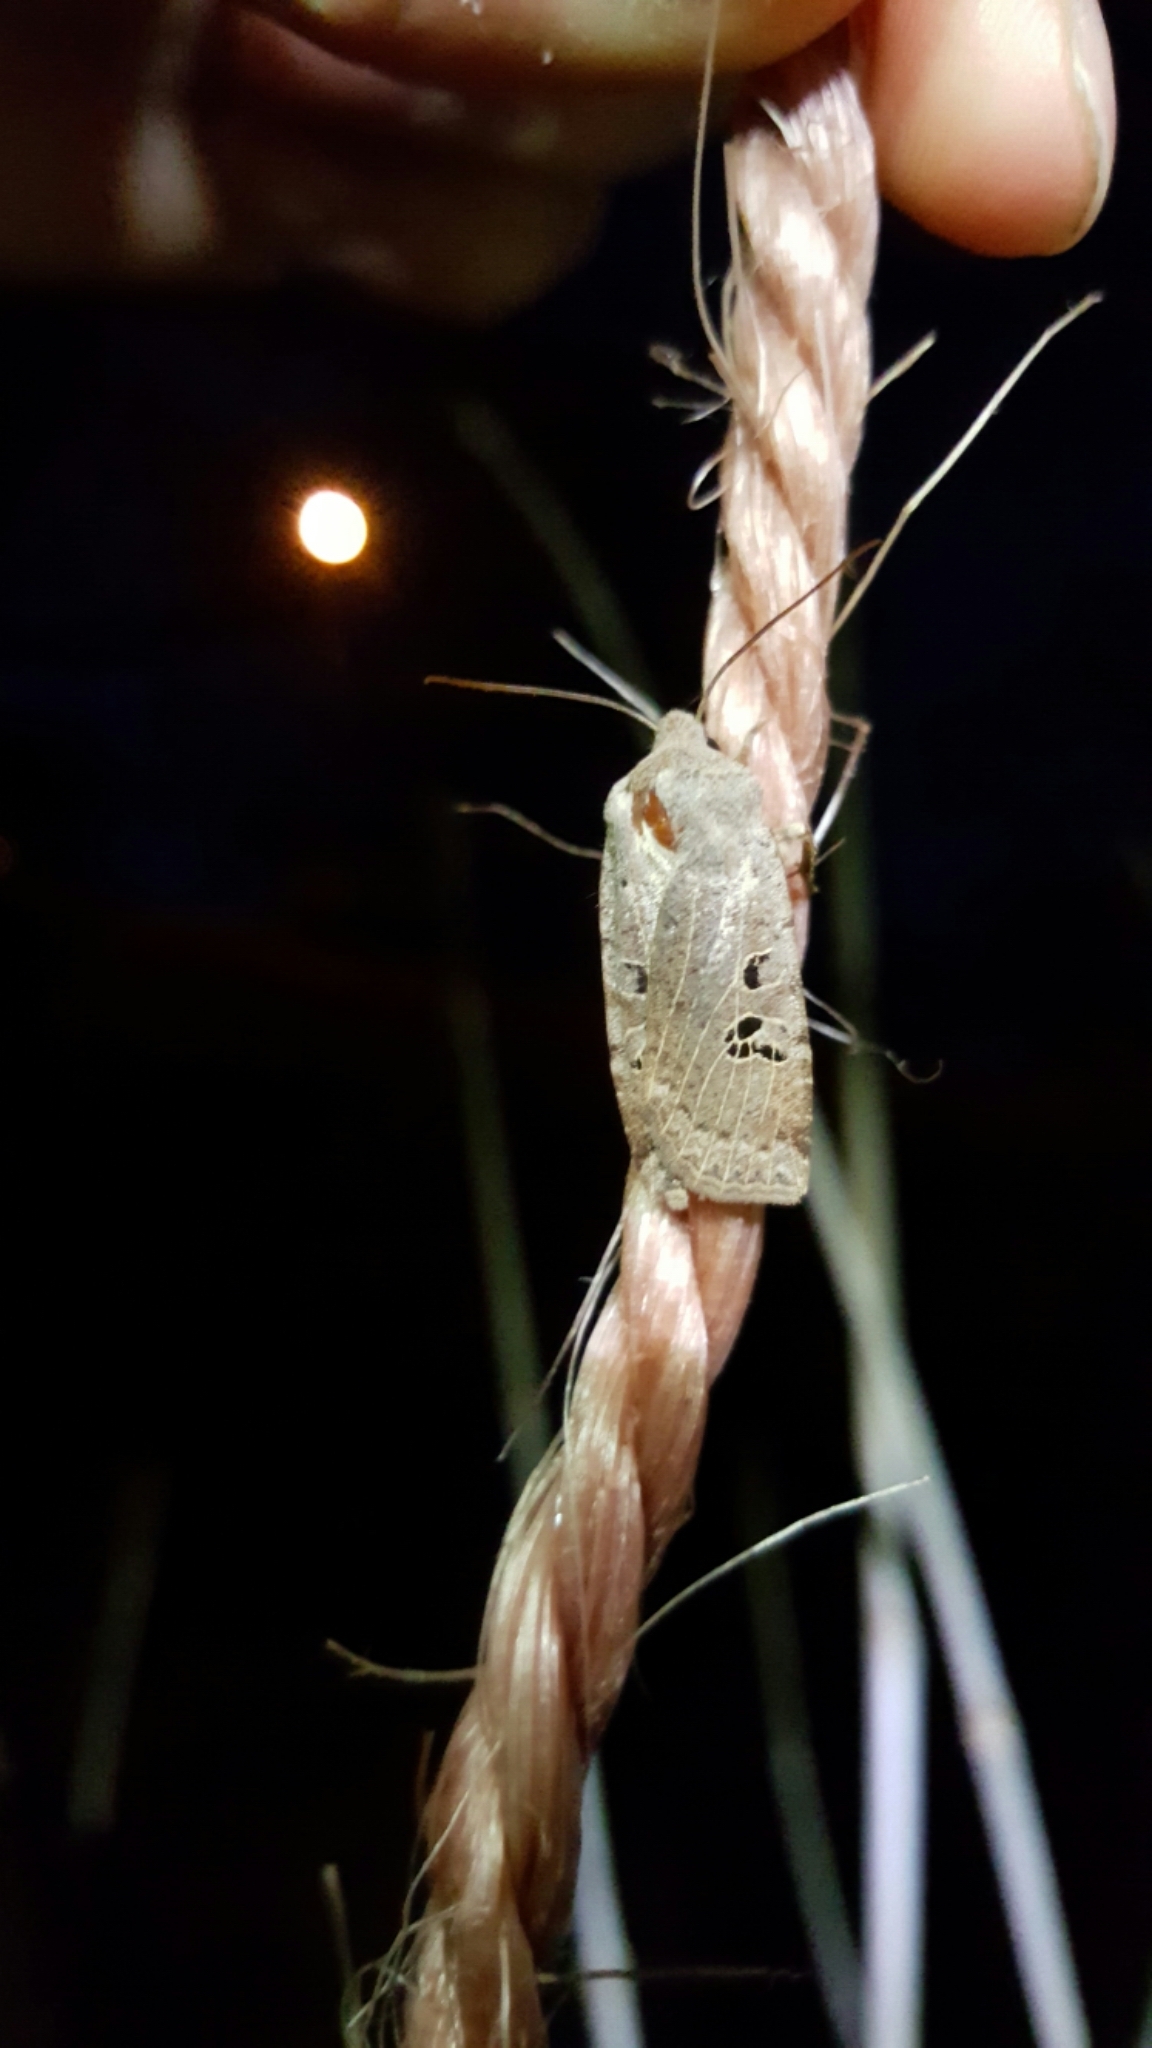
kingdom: Animalia
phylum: Arthropoda
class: Insecta
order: Lepidoptera
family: Noctuidae
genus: Conistra
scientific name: Conistra rubiginosa
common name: Black-spotted chestnut
